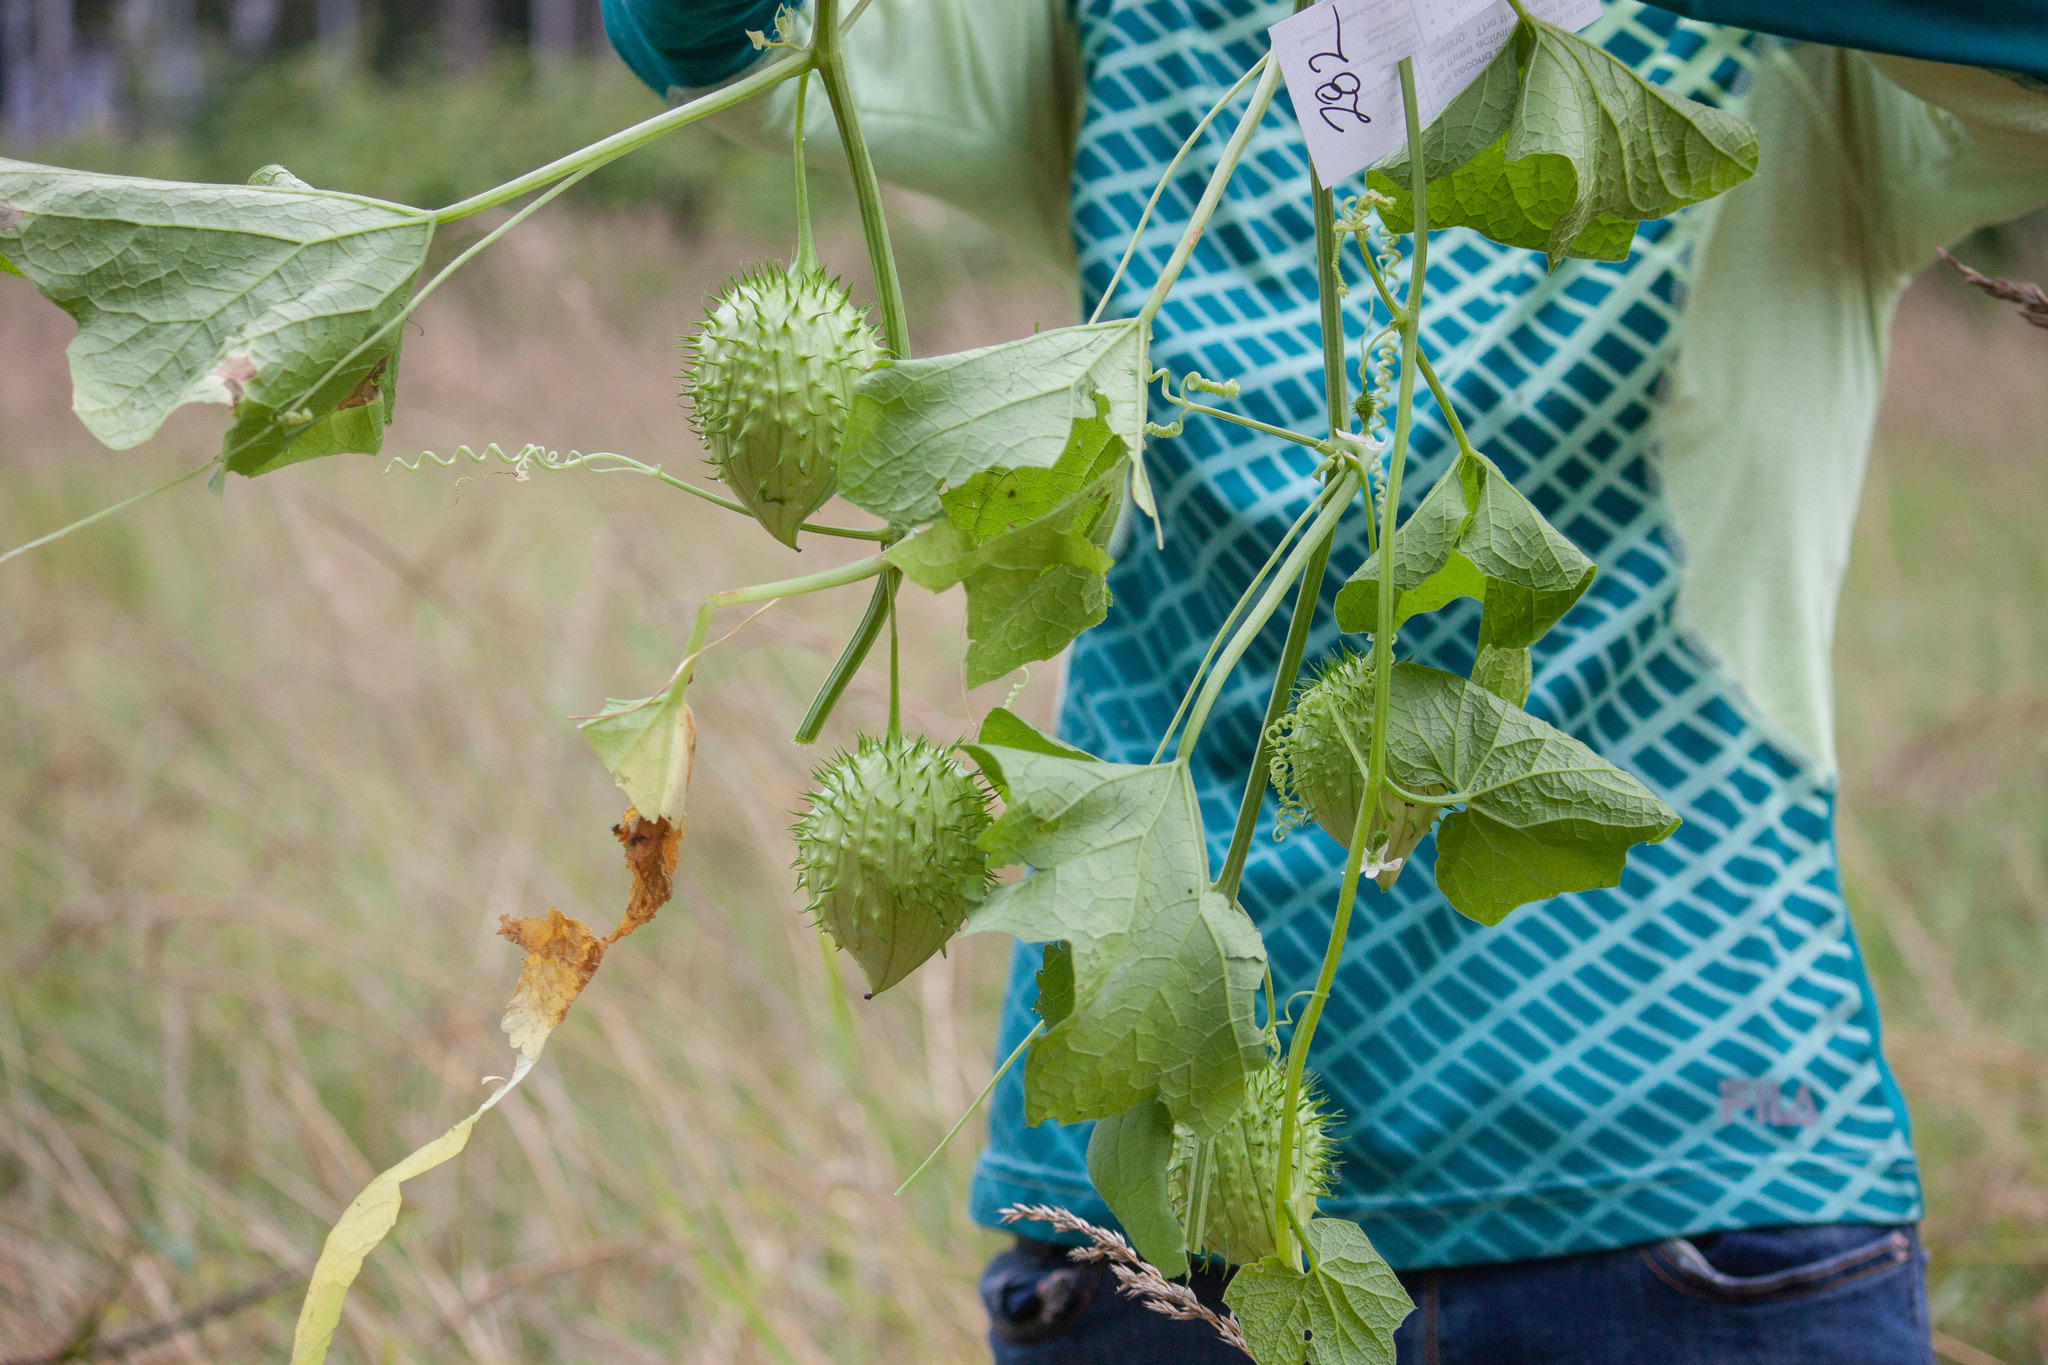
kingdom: Plantae
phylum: Tracheophyta
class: Magnoliopsida
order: Cucurbitales
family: Cucurbitaceae
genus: Marah
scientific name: Marah oregana
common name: Coastal manroot
